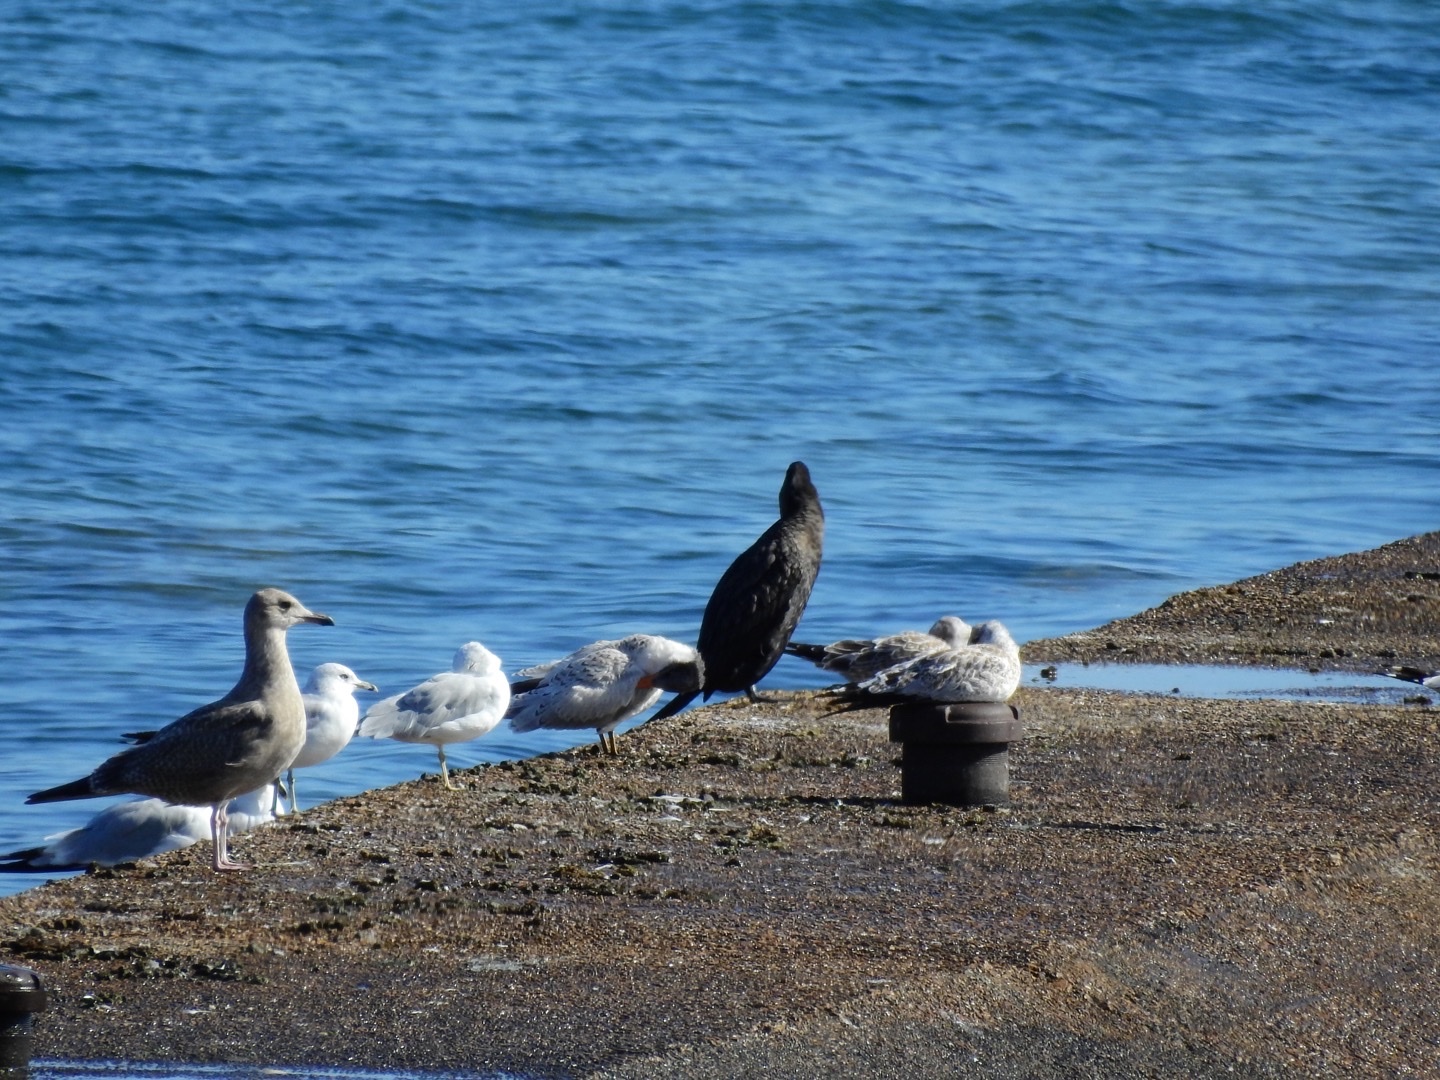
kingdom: Animalia
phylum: Chordata
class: Aves
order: Charadriiformes
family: Laridae
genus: Hydroprogne
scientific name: Hydroprogne caspia
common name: Caspian tern
